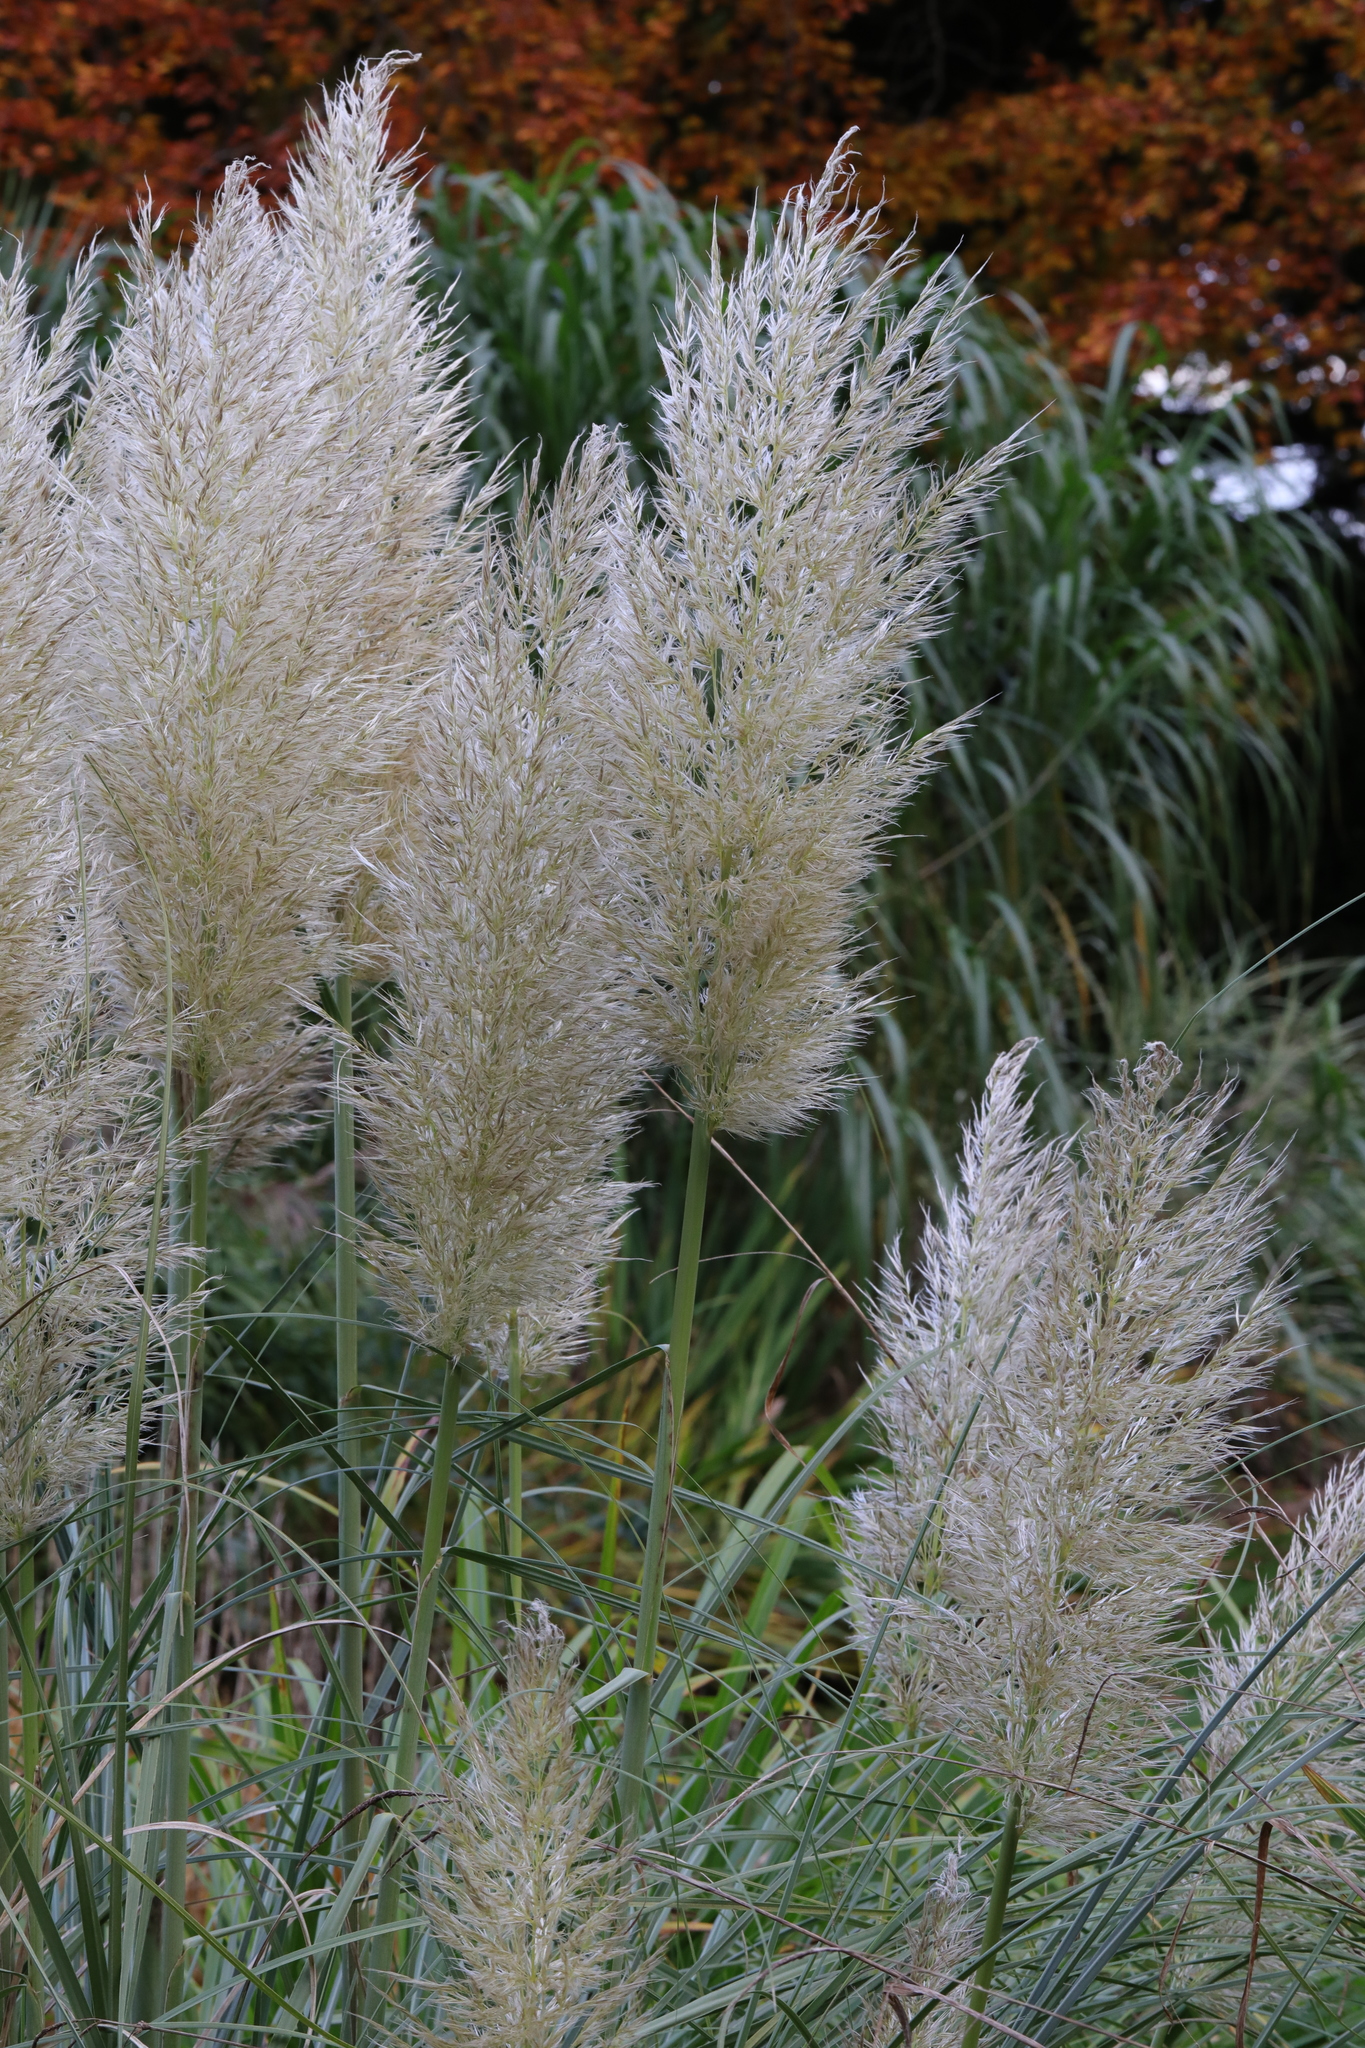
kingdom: Plantae
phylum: Tracheophyta
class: Liliopsida
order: Poales
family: Poaceae
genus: Cortaderia
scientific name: Cortaderia selloana
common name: Uruguayan pampas grass
